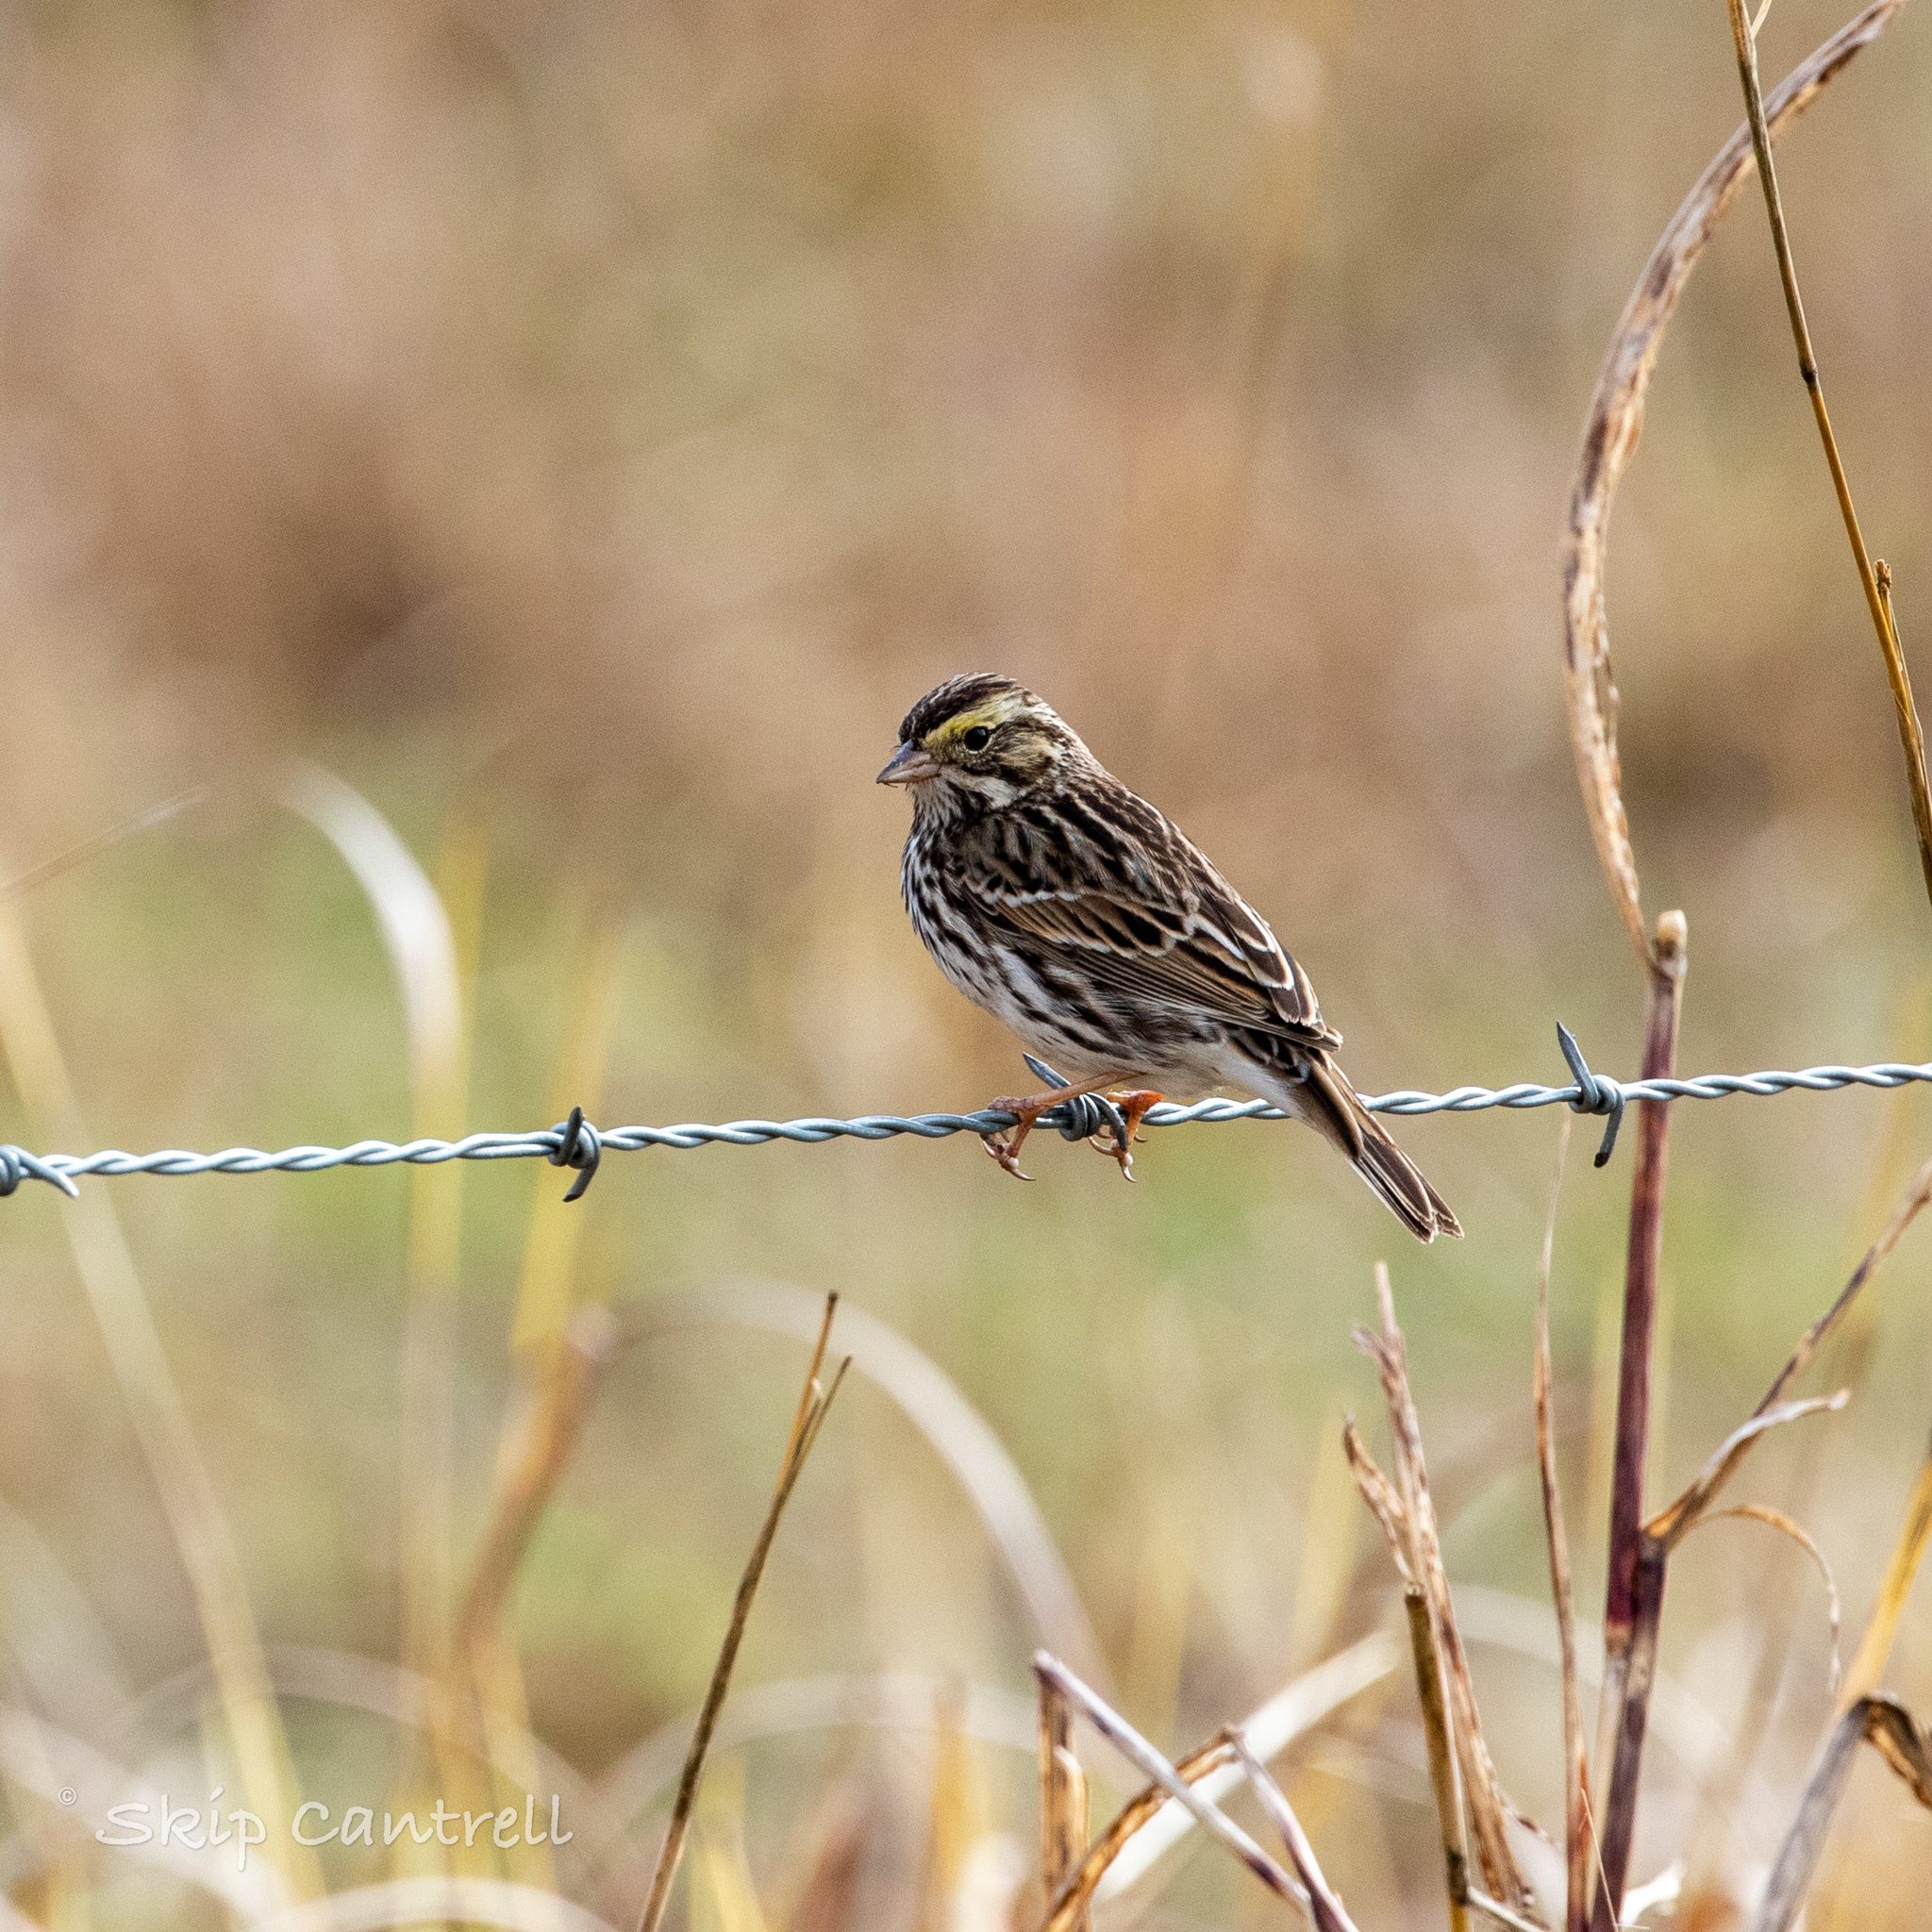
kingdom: Animalia
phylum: Chordata
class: Aves
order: Passeriformes
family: Passerellidae
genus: Passerculus
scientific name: Passerculus sandwichensis
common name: Savannah sparrow
